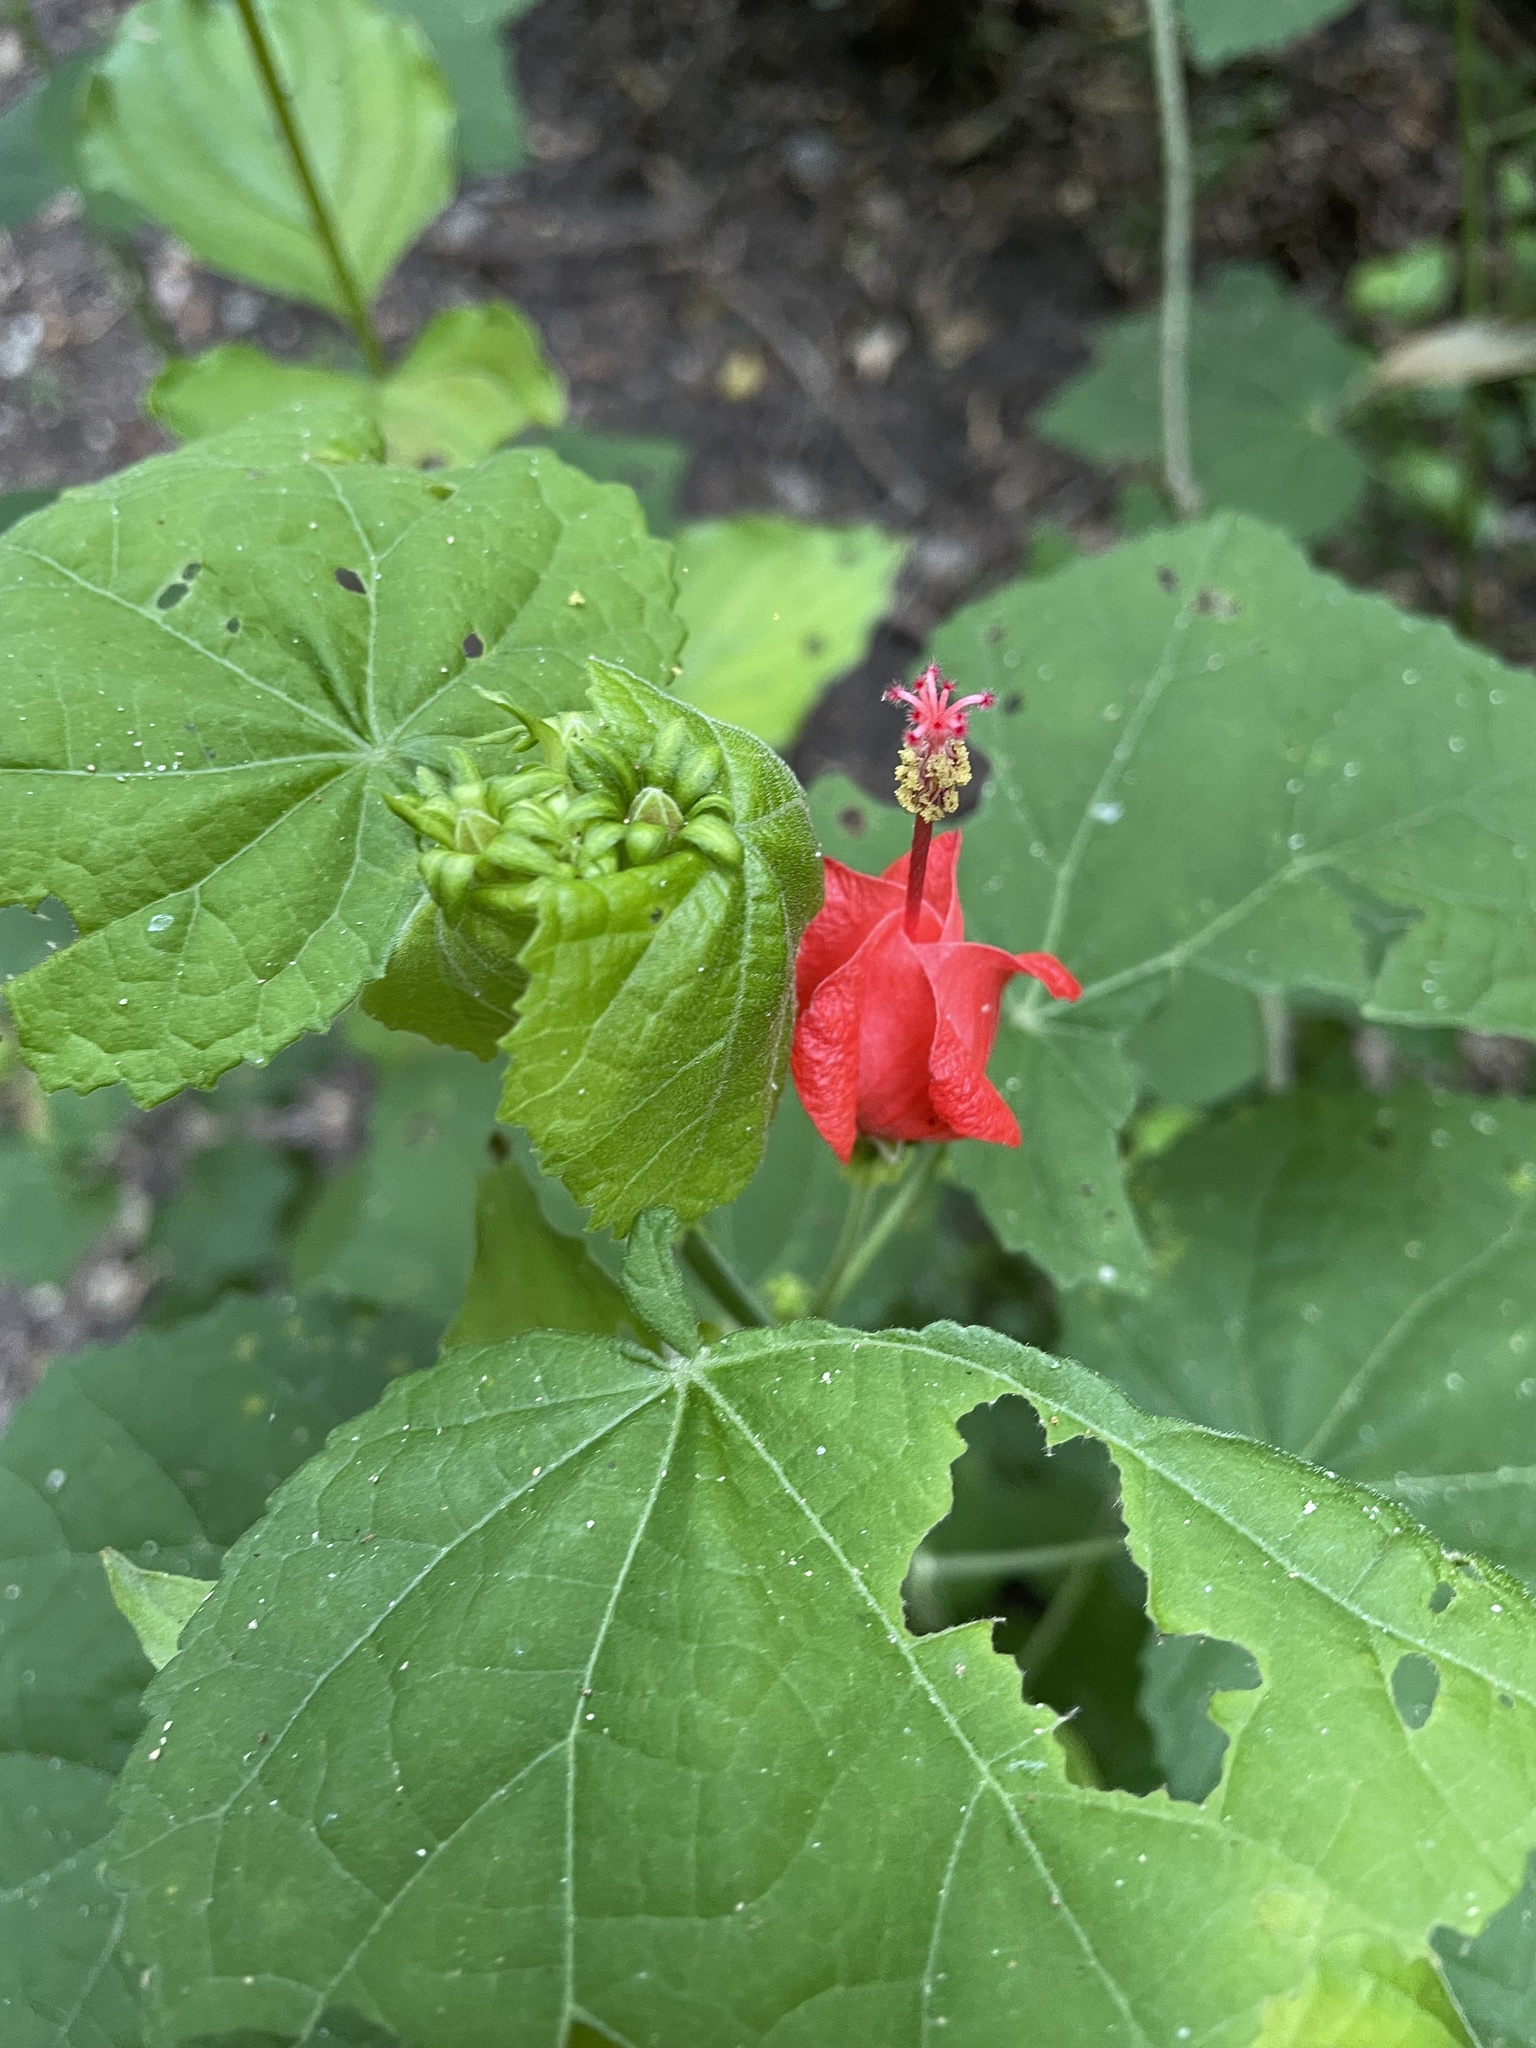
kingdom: Plantae
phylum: Tracheophyta
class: Magnoliopsida
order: Malvales
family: Malvaceae
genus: Malvaviscus
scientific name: Malvaviscus arboreus
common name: Wax mallow
